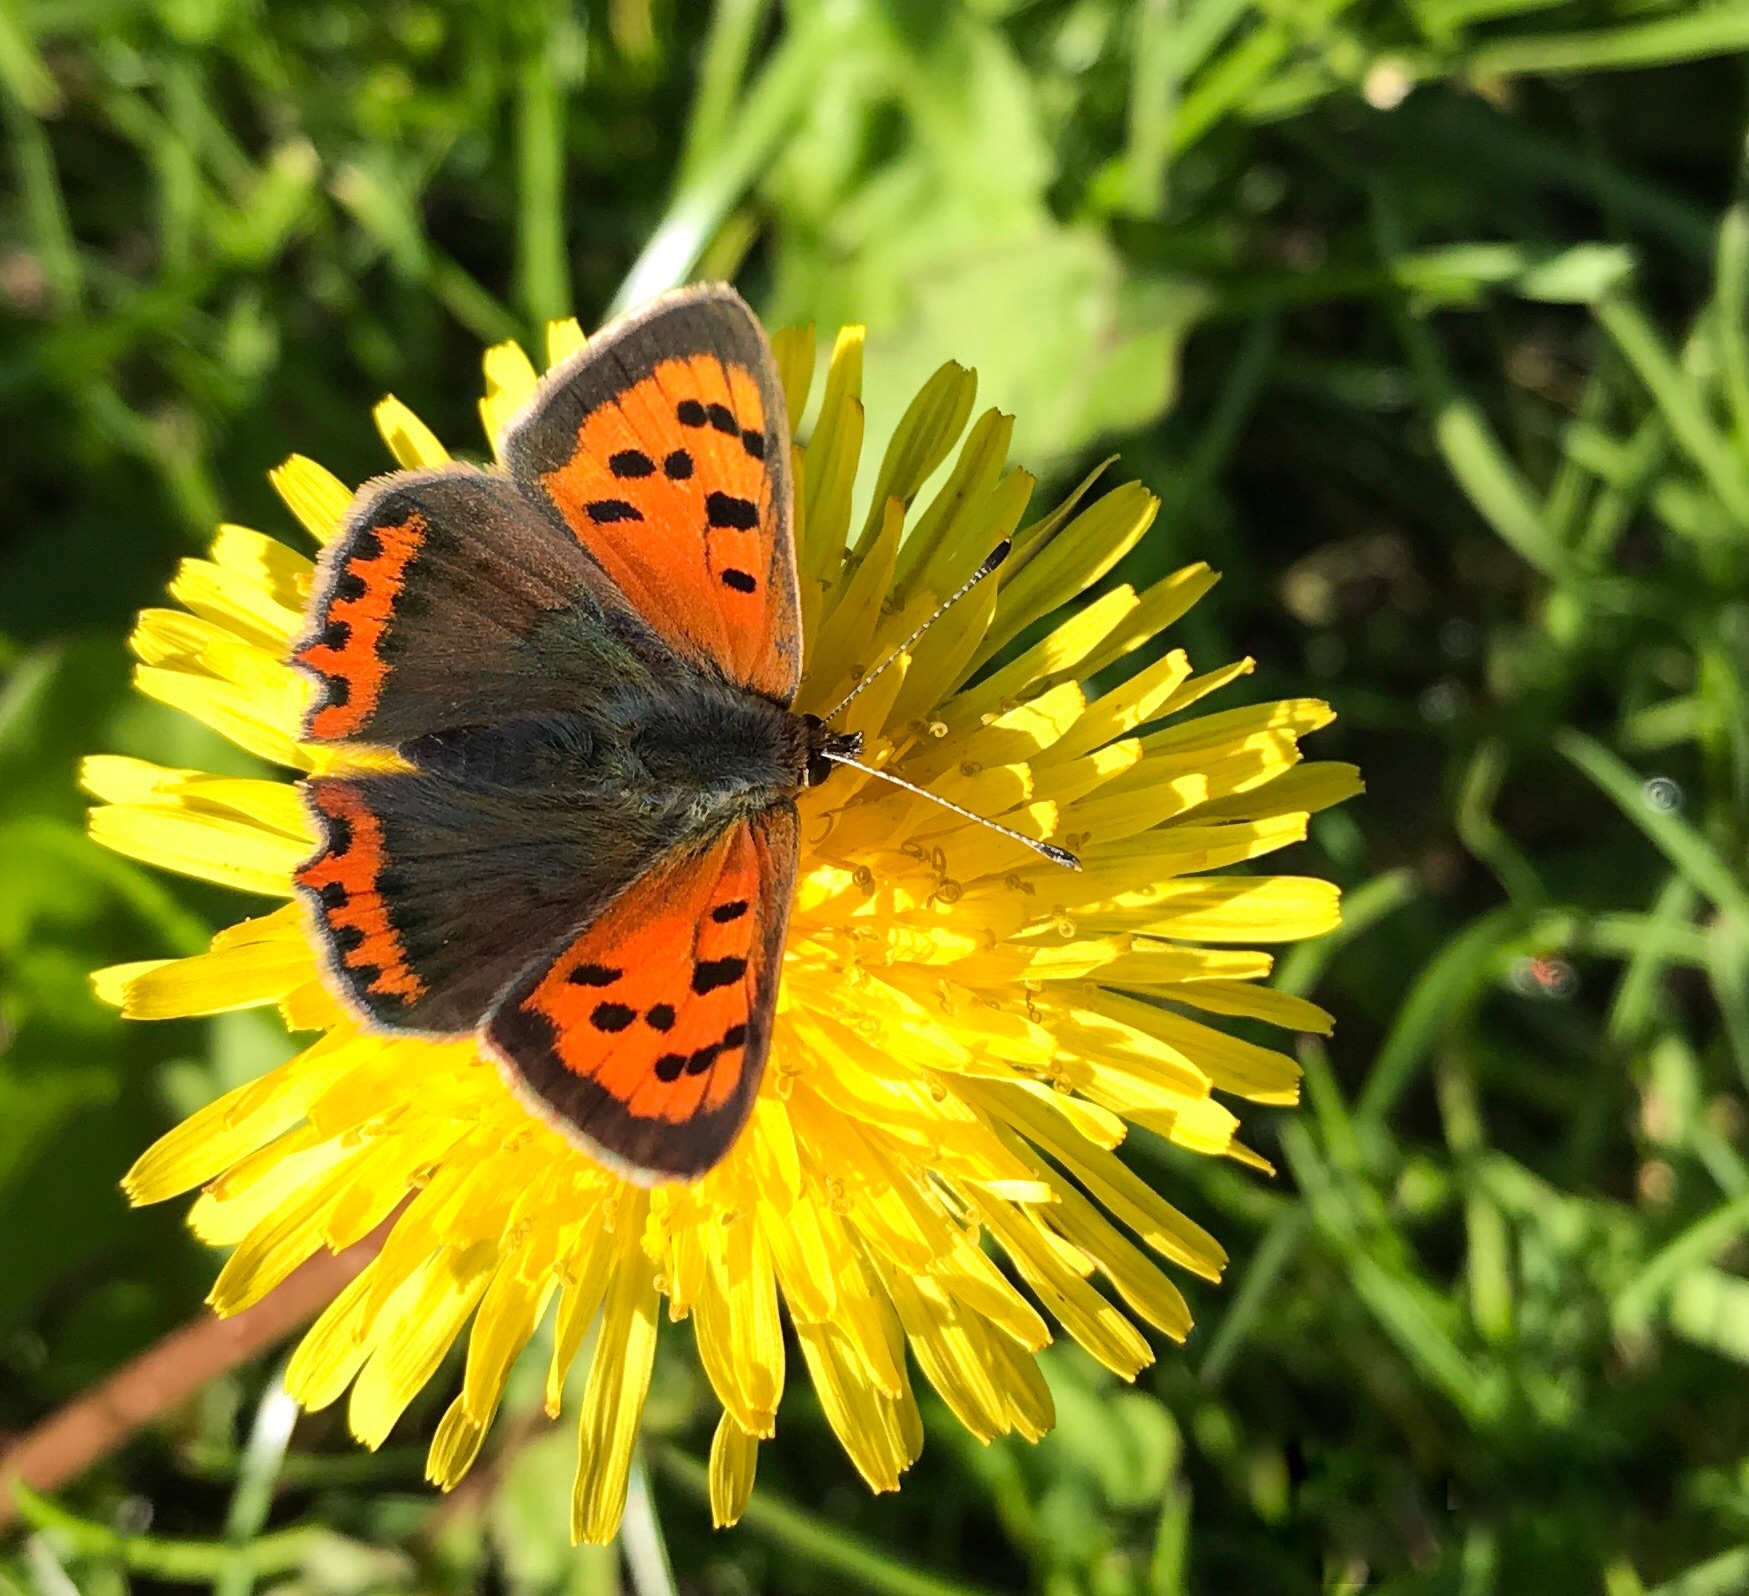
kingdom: Animalia
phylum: Arthropoda
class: Insecta
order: Lepidoptera
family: Lycaenidae
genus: Lycaena
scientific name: Lycaena phlaeas
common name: Small copper
